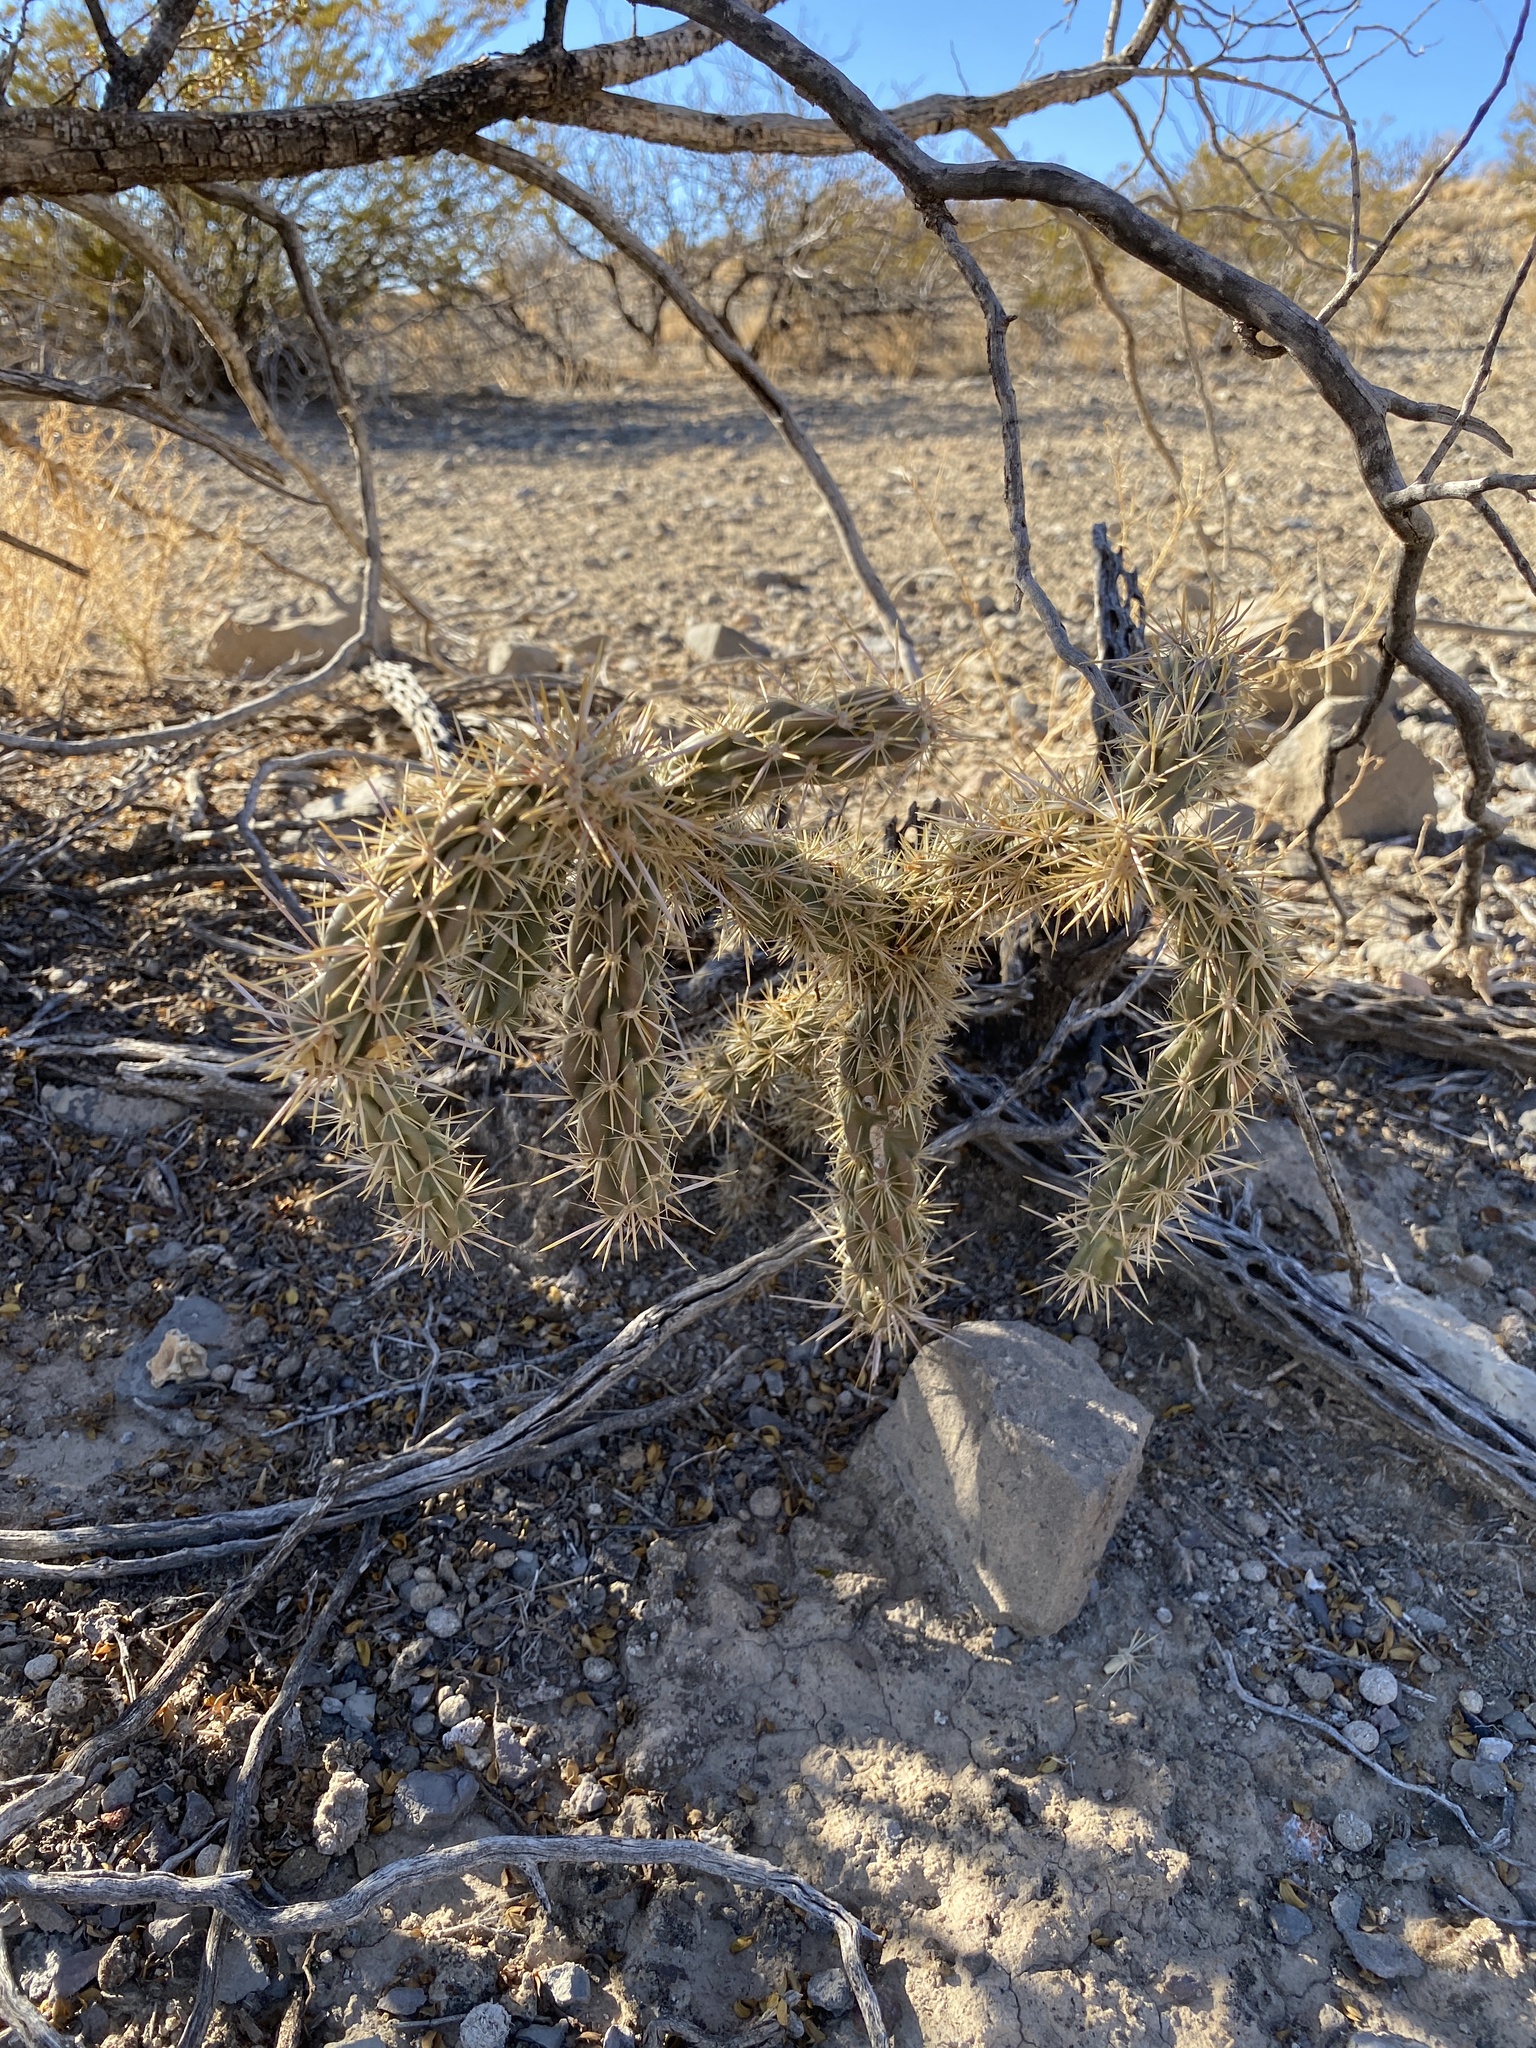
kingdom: Plantae
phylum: Tracheophyta
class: Magnoliopsida
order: Caryophyllales
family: Cactaceae
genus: Cylindropuntia
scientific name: Cylindropuntia imbricata
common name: Candelabrum cactus
